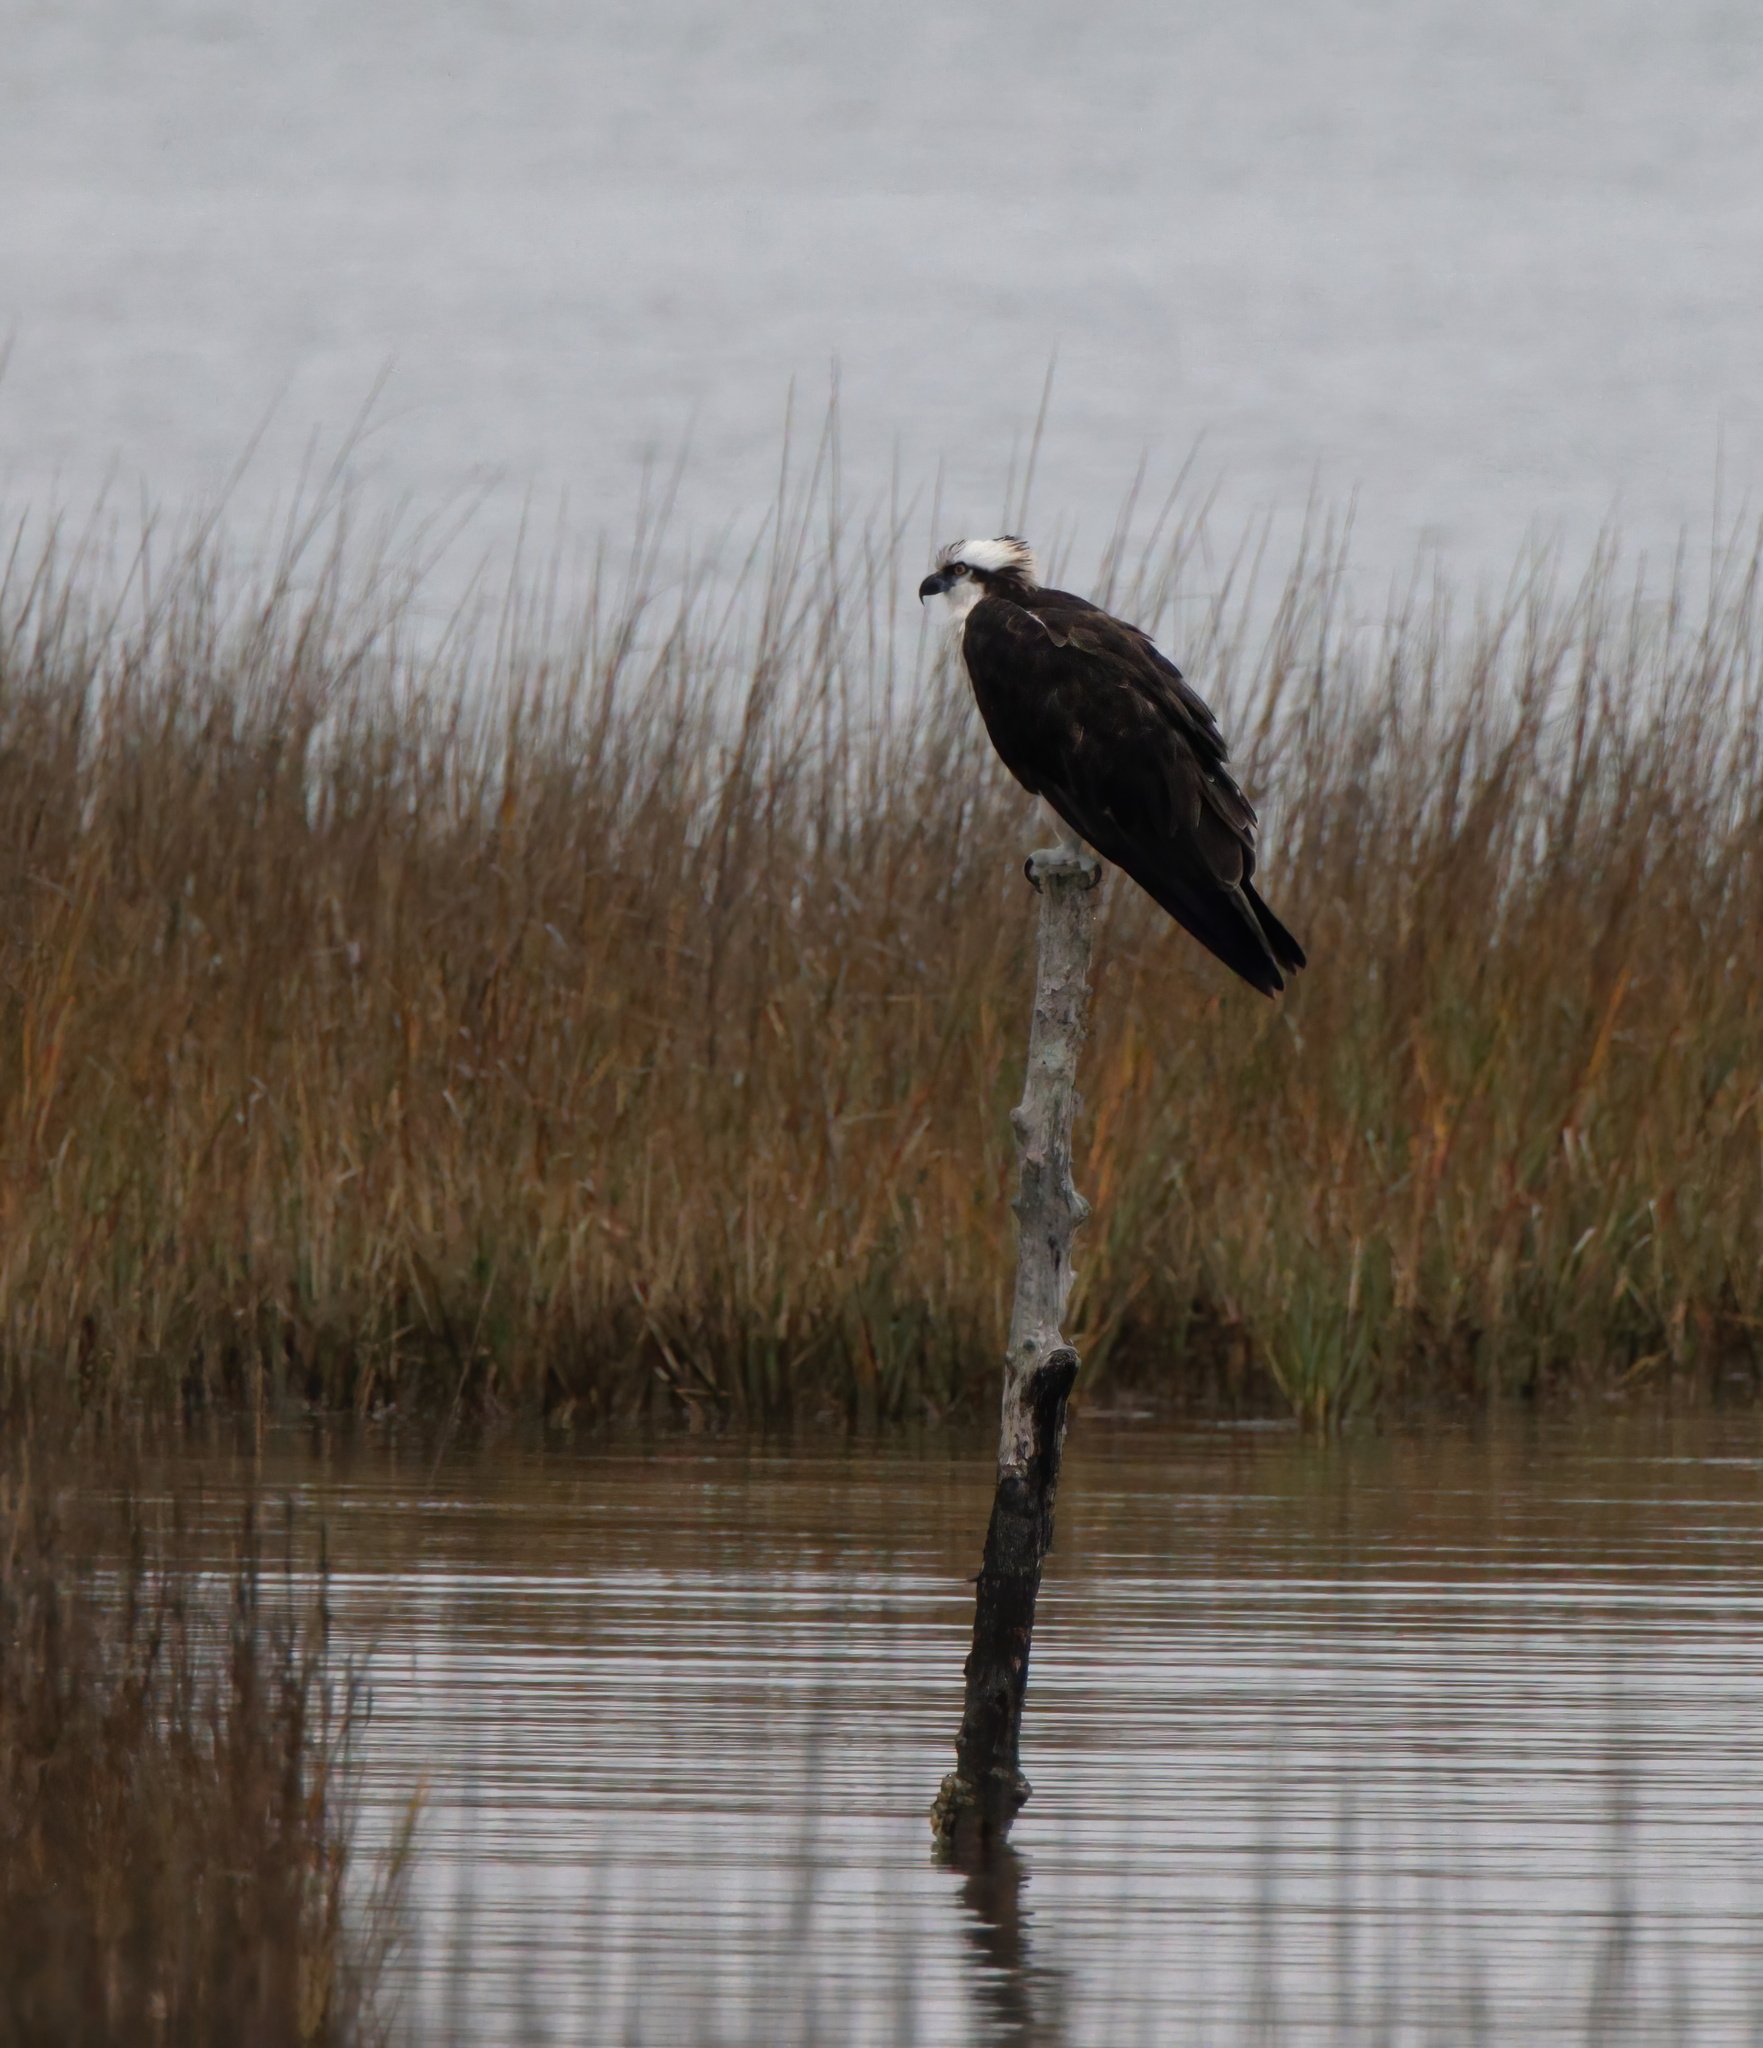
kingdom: Animalia
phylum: Chordata
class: Aves
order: Accipitriformes
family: Pandionidae
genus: Pandion
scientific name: Pandion haliaetus
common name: Osprey
